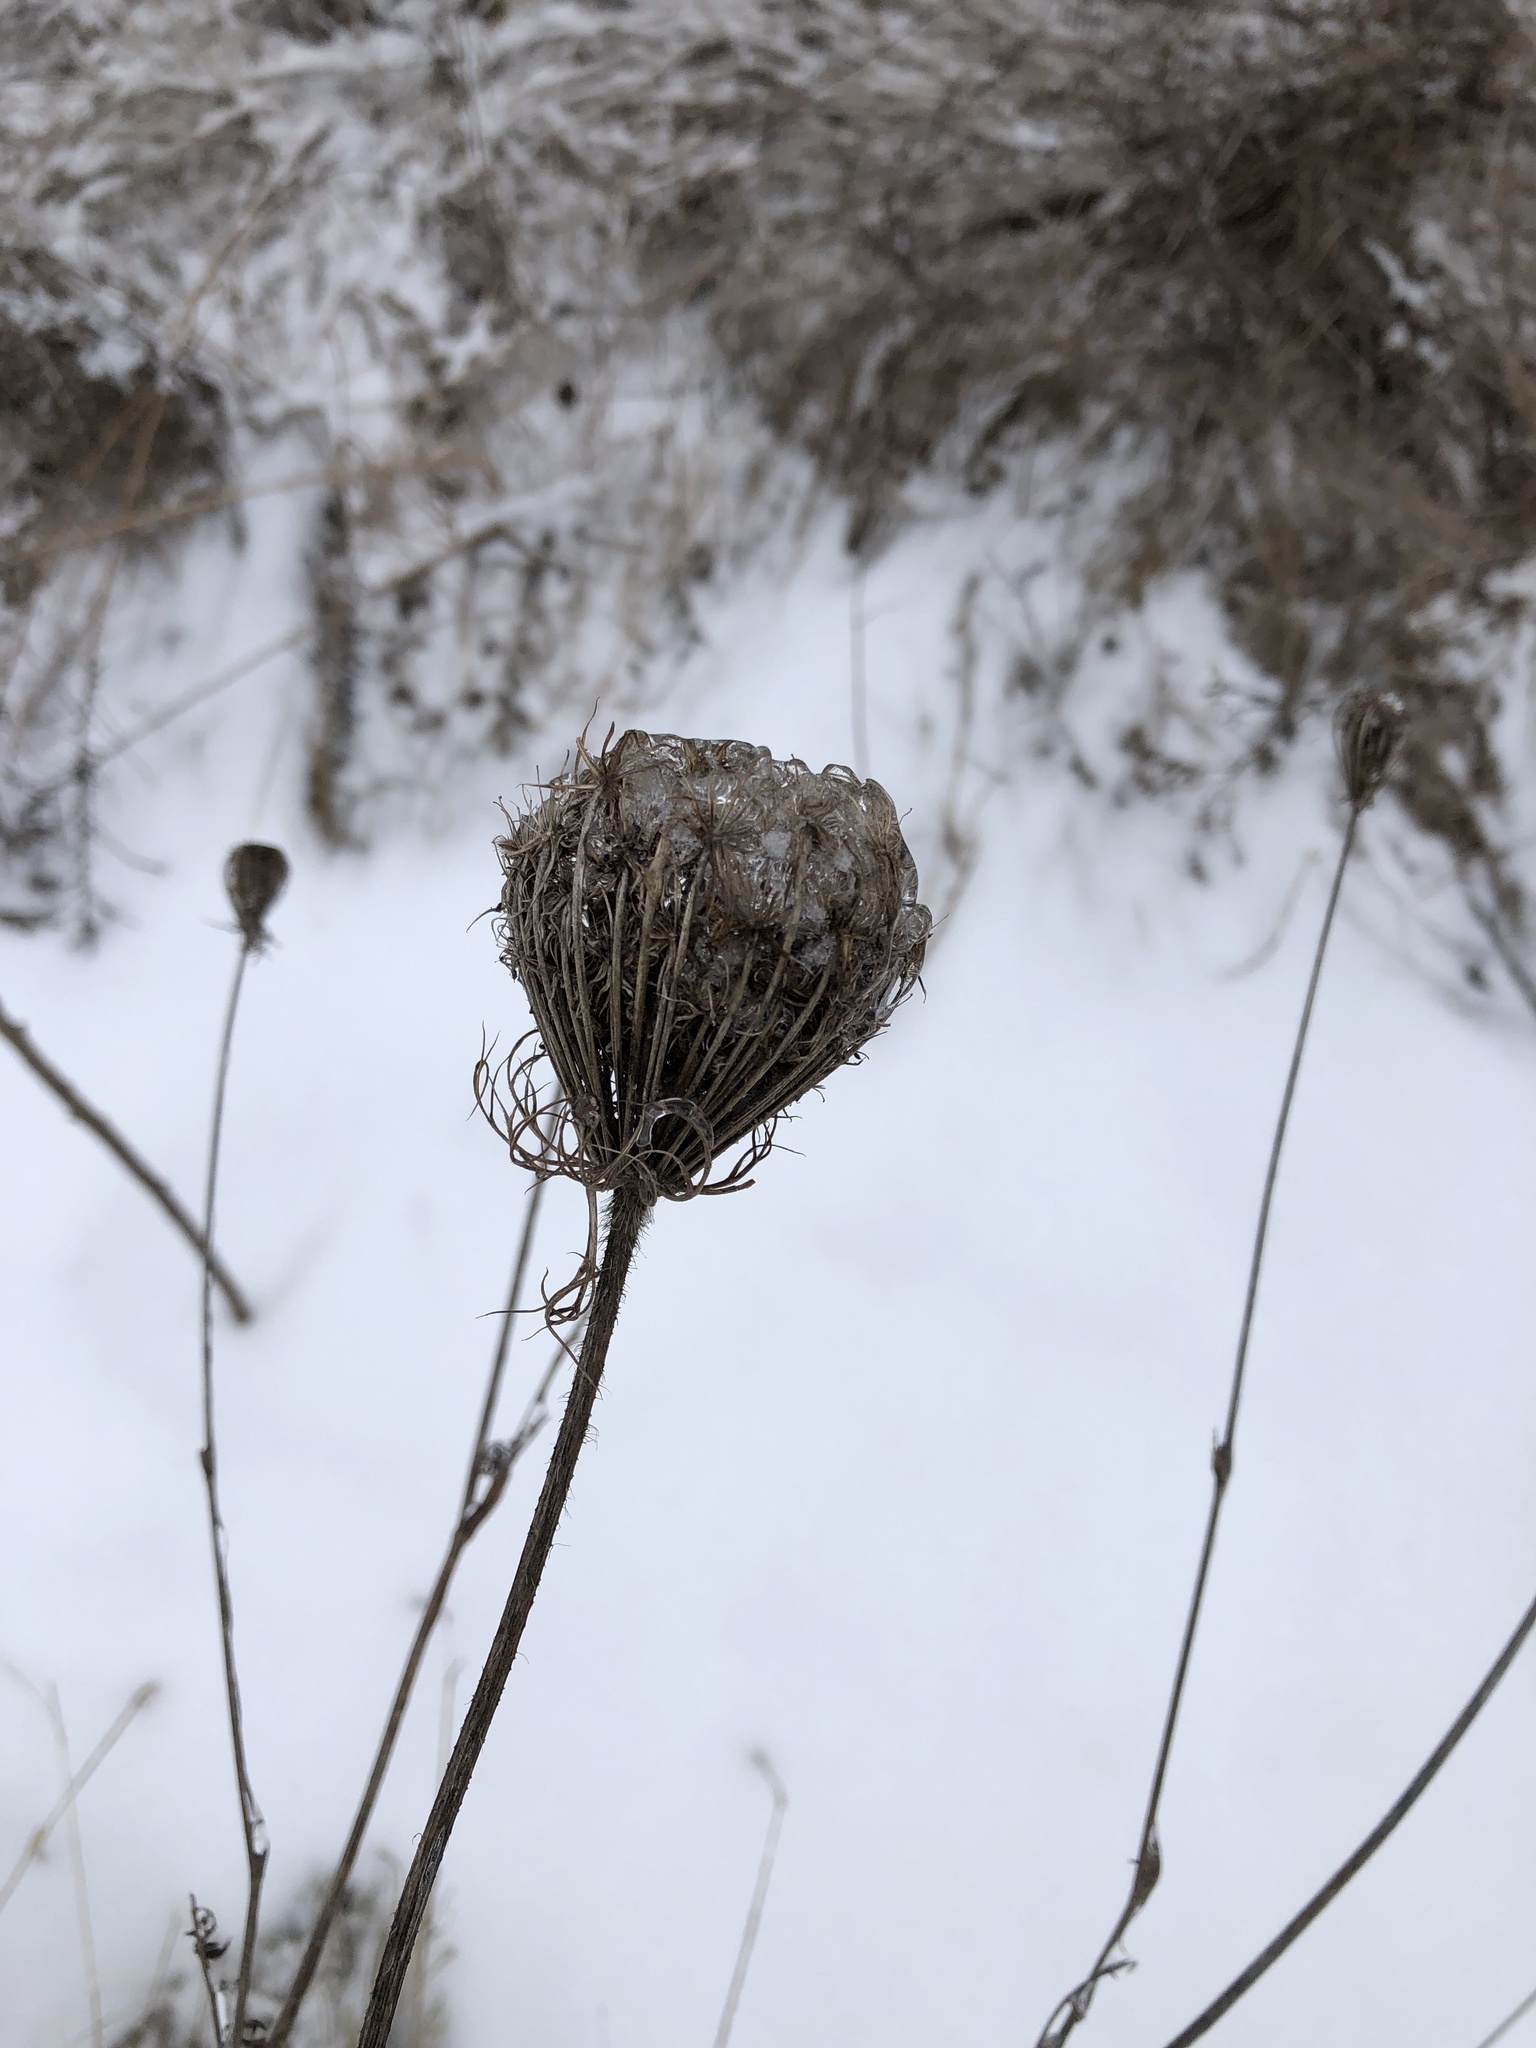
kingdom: Plantae
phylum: Tracheophyta
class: Magnoliopsida
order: Apiales
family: Apiaceae
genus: Daucus
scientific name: Daucus carota
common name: Wild carrot
